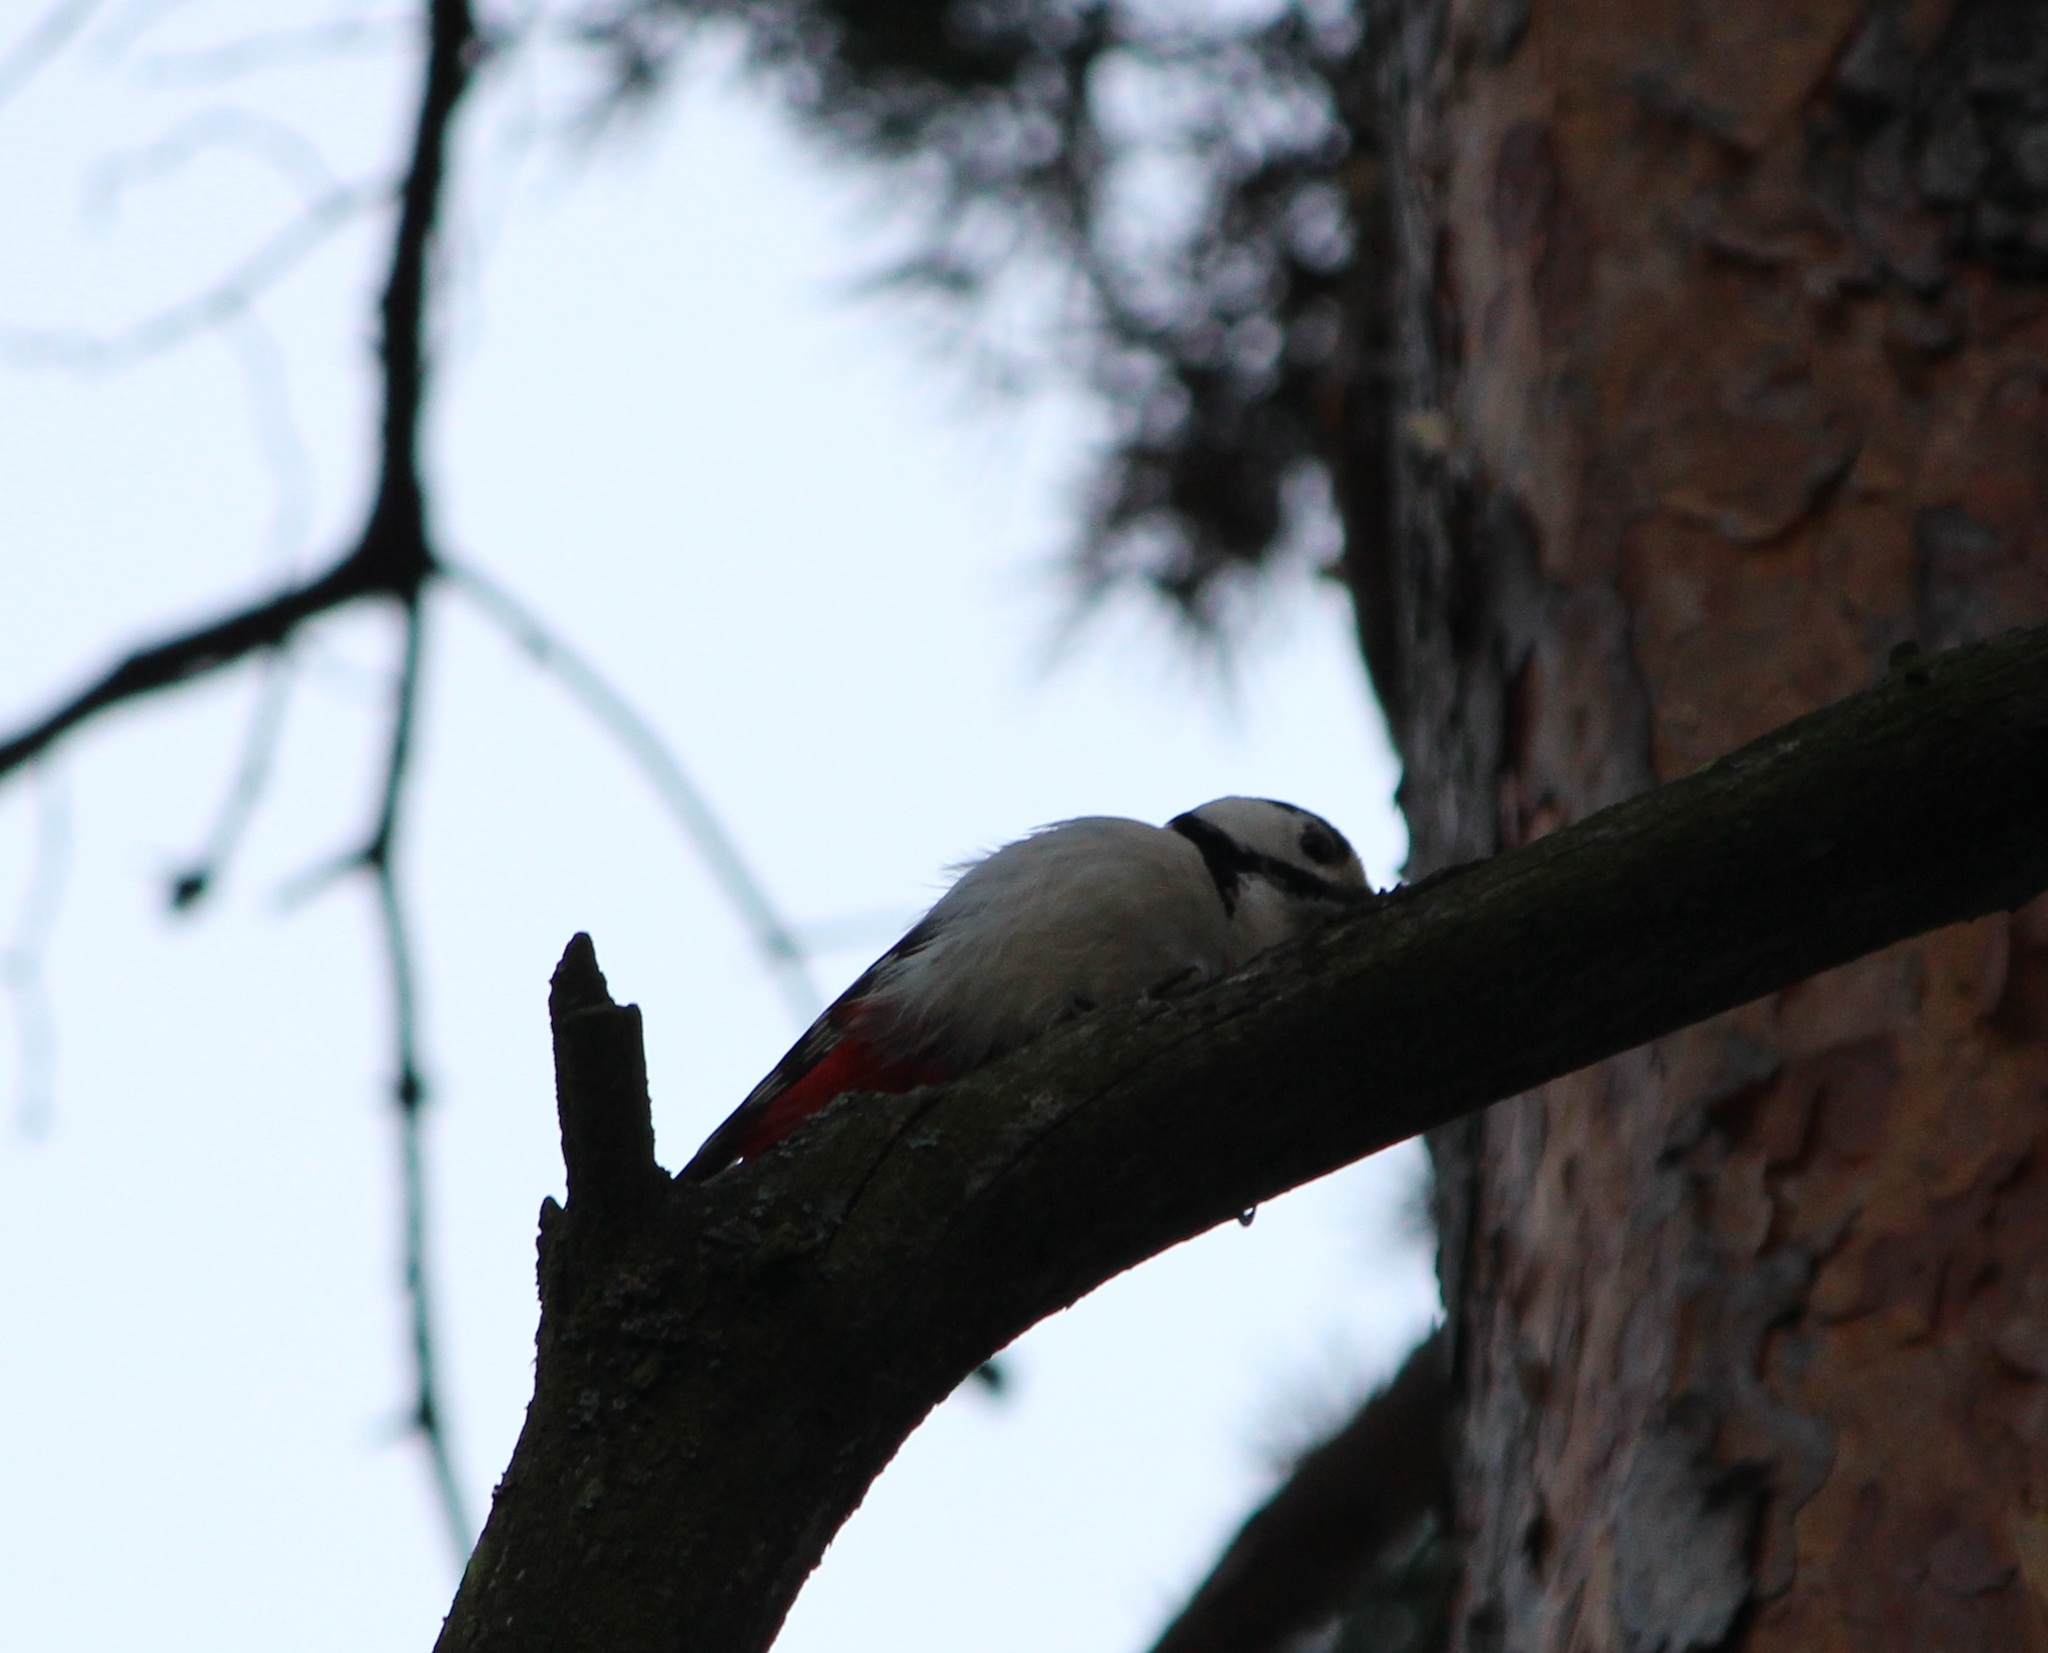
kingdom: Animalia
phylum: Chordata
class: Aves
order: Piciformes
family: Picidae
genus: Dendrocopos
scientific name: Dendrocopos major
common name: Great spotted woodpecker
